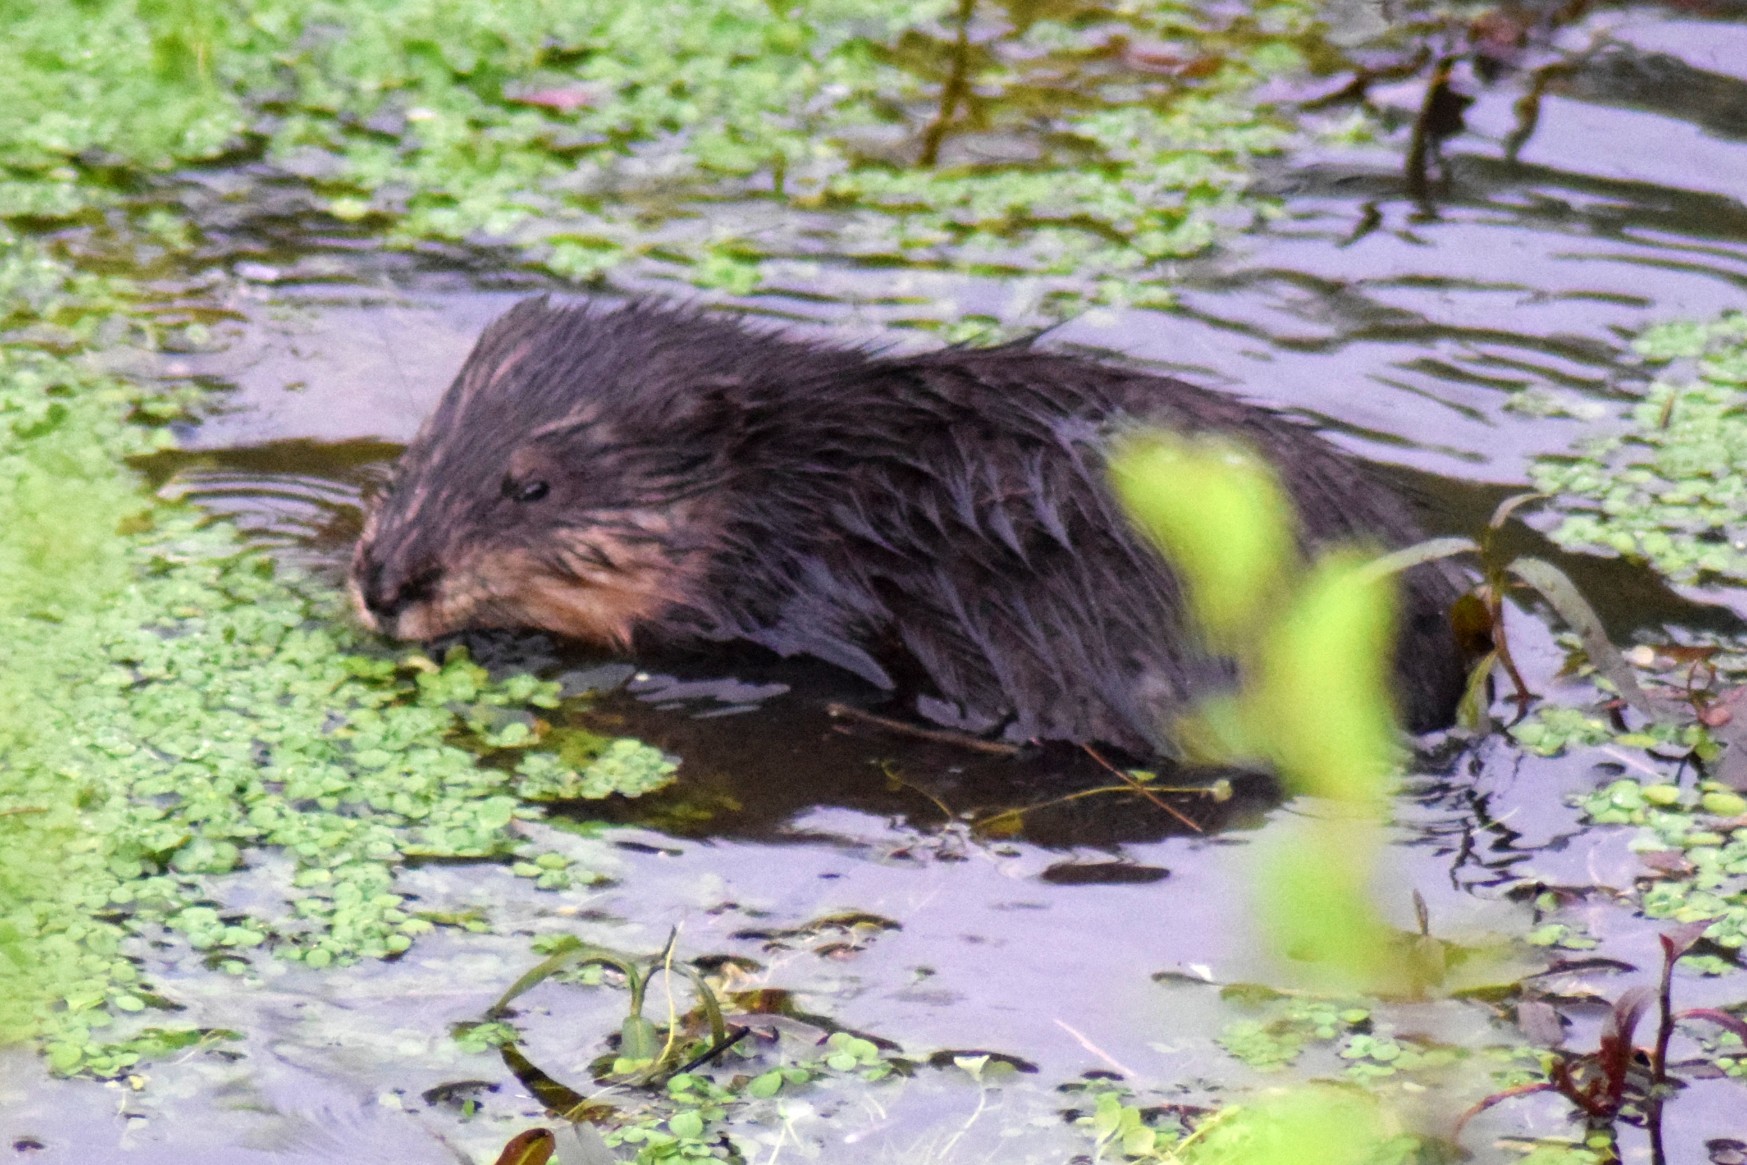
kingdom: Animalia
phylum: Chordata
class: Mammalia
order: Rodentia
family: Cricetidae
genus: Ondatra
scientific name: Ondatra zibethicus
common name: Muskrat
